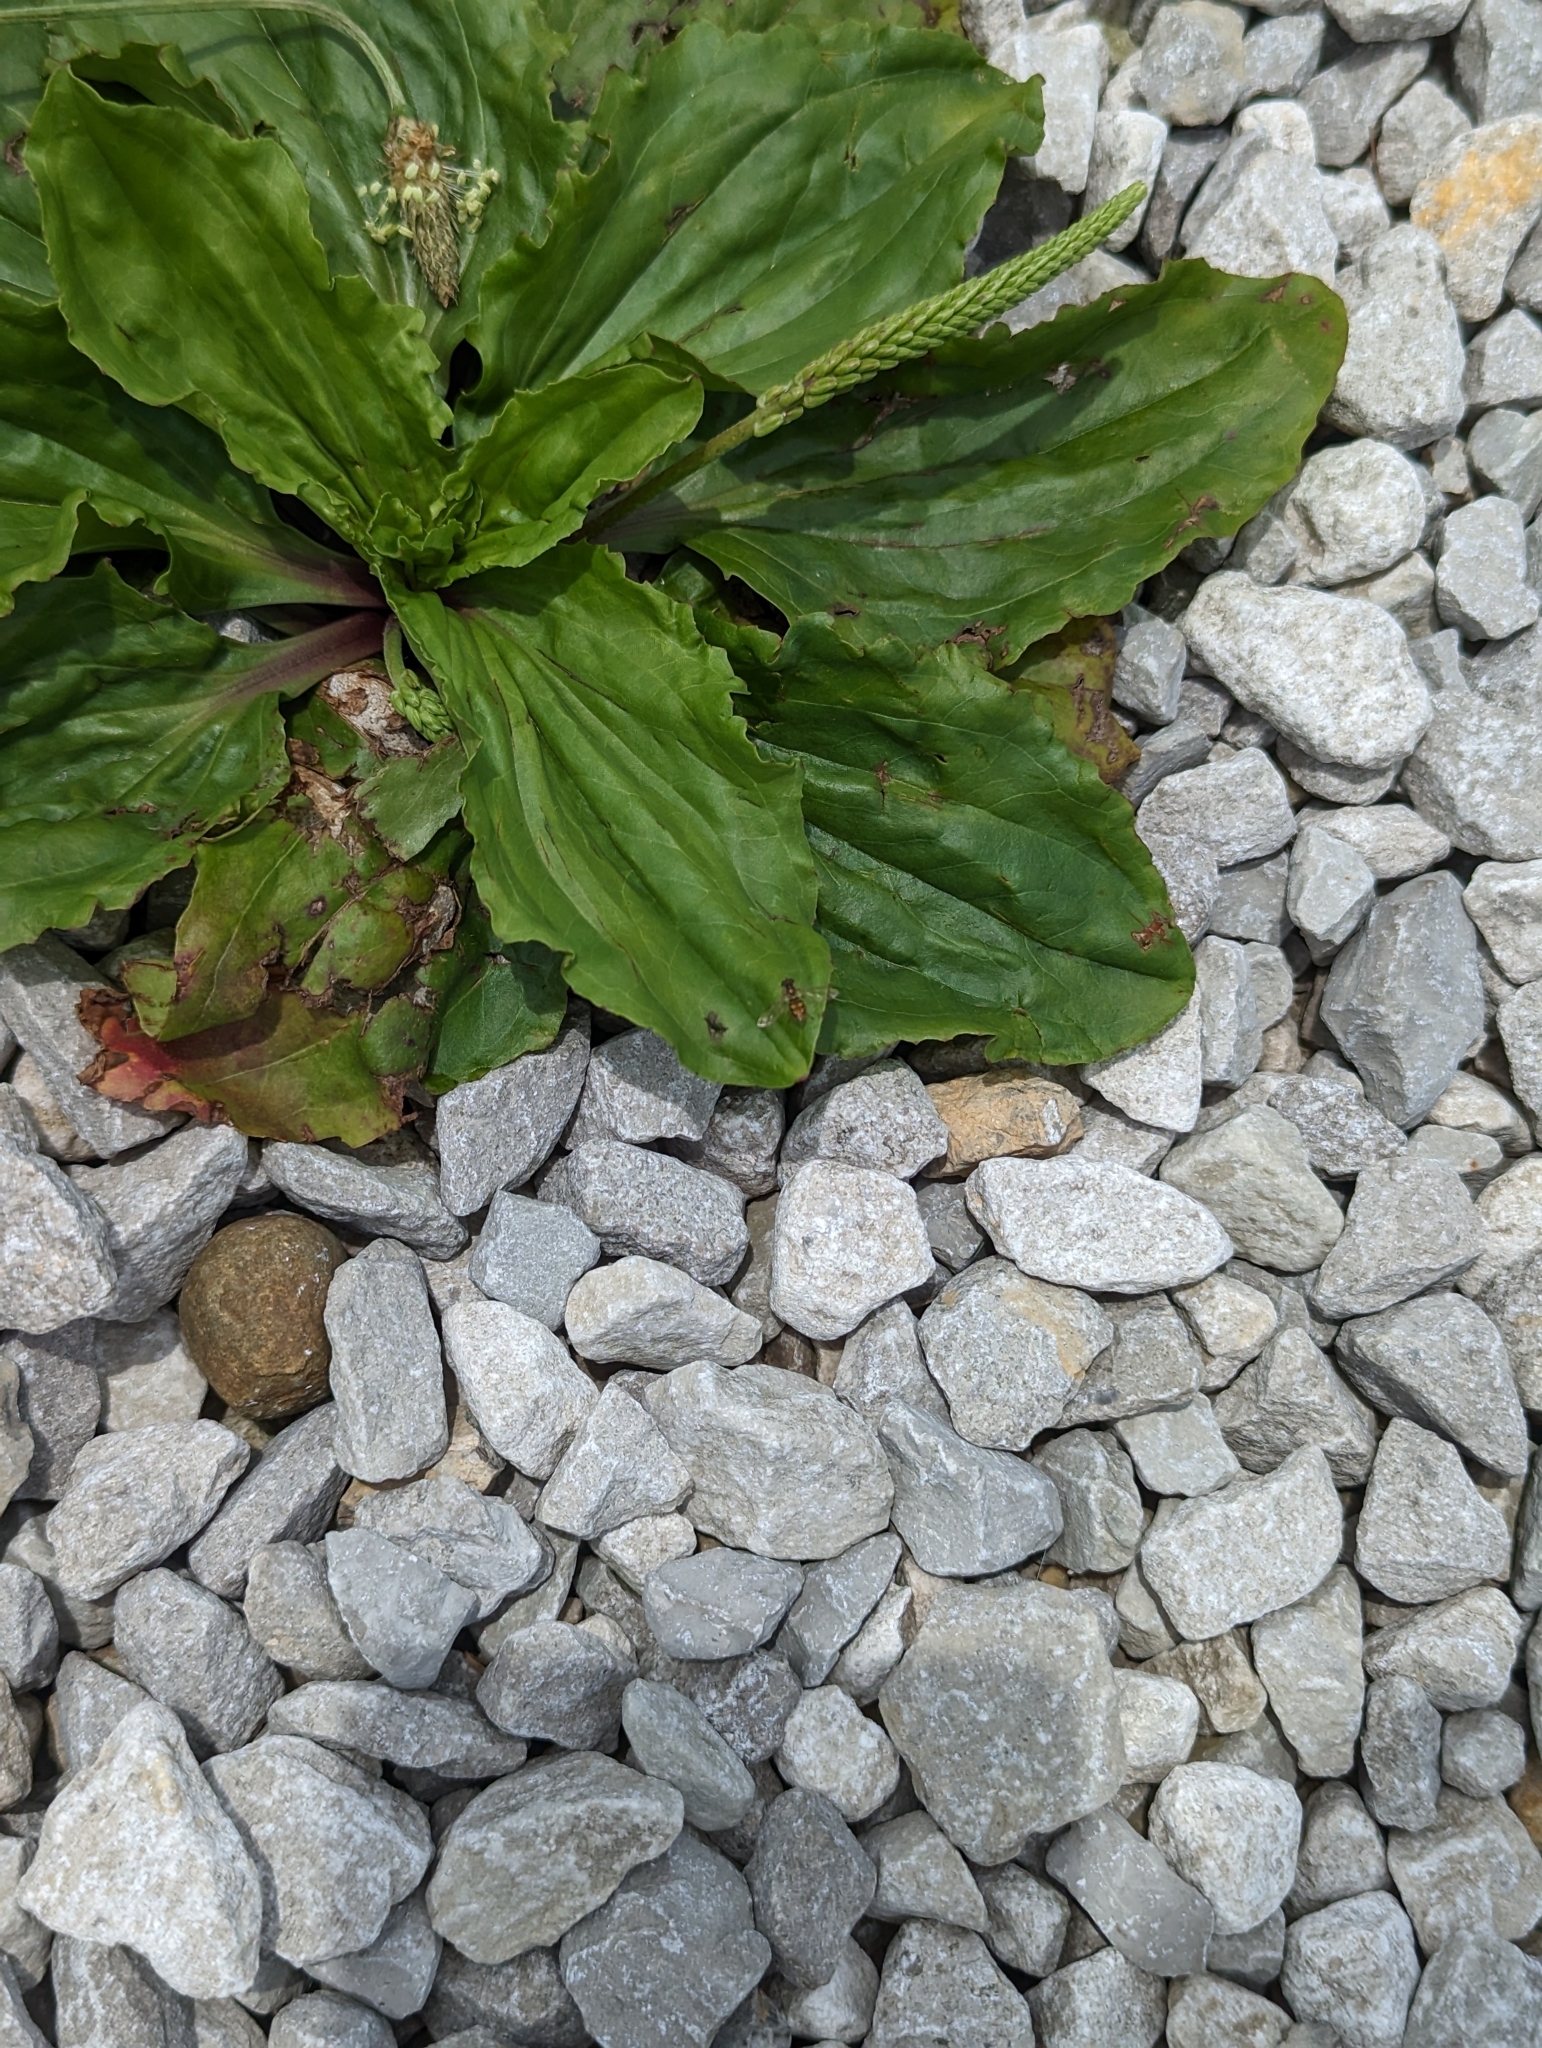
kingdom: Animalia
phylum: Arthropoda
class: Insecta
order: Diptera
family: Syrphidae
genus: Toxomerus
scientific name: Toxomerus marginatus
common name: Syrphid fly
